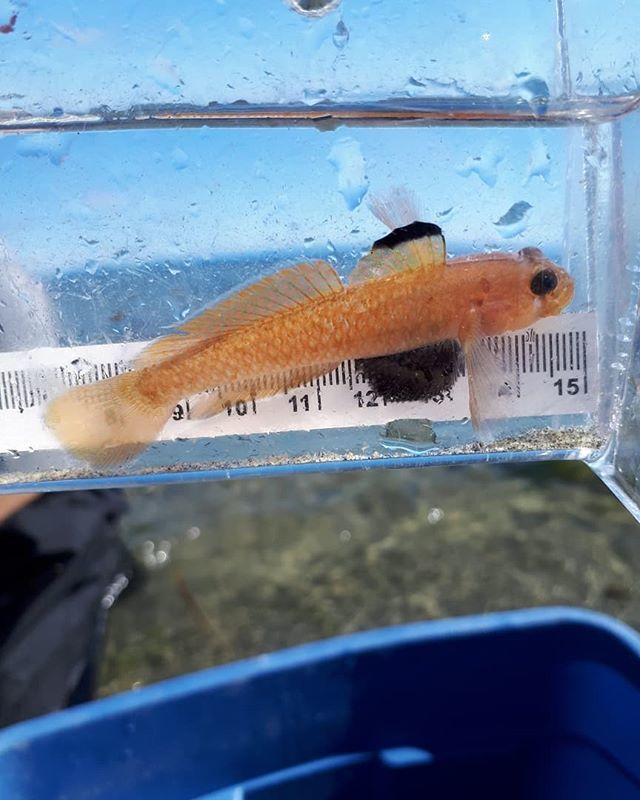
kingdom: Animalia
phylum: Chordata
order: Perciformes
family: Gobiidae
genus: Rhinogobiops
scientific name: Rhinogobiops nicholsii
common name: Blackeye goby
